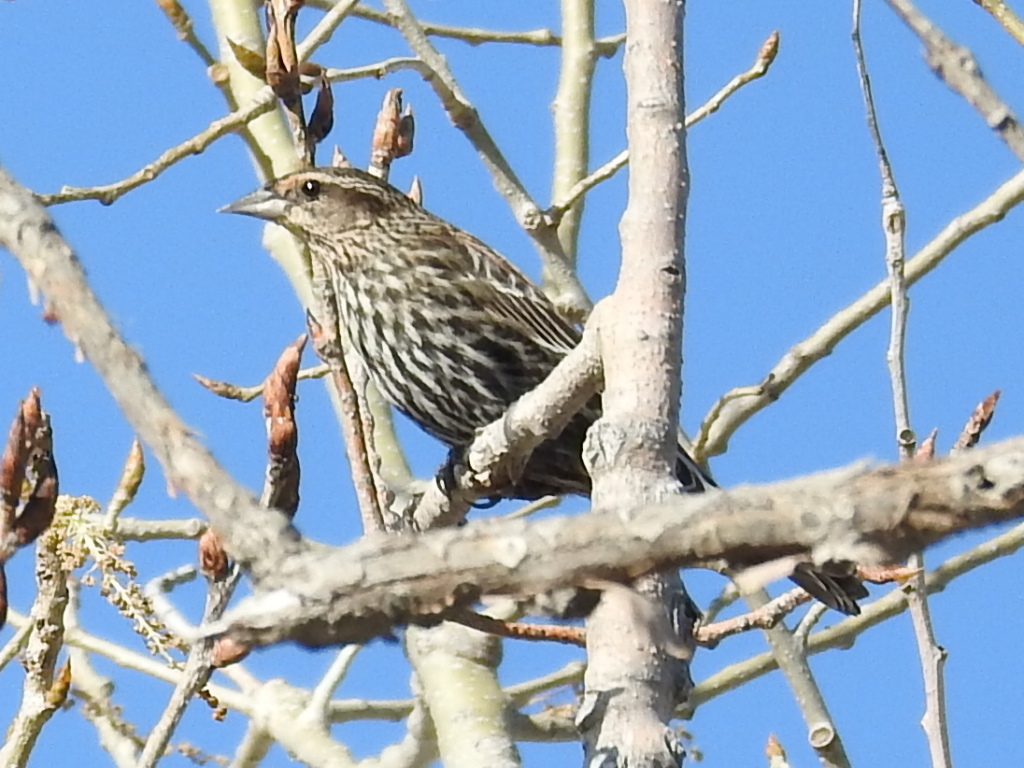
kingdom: Animalia
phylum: Chordata
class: Aves
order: Passeriformes
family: Icteridae
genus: Agelaius
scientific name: Agelaius phoeniceus
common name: Red-winged blackbird
